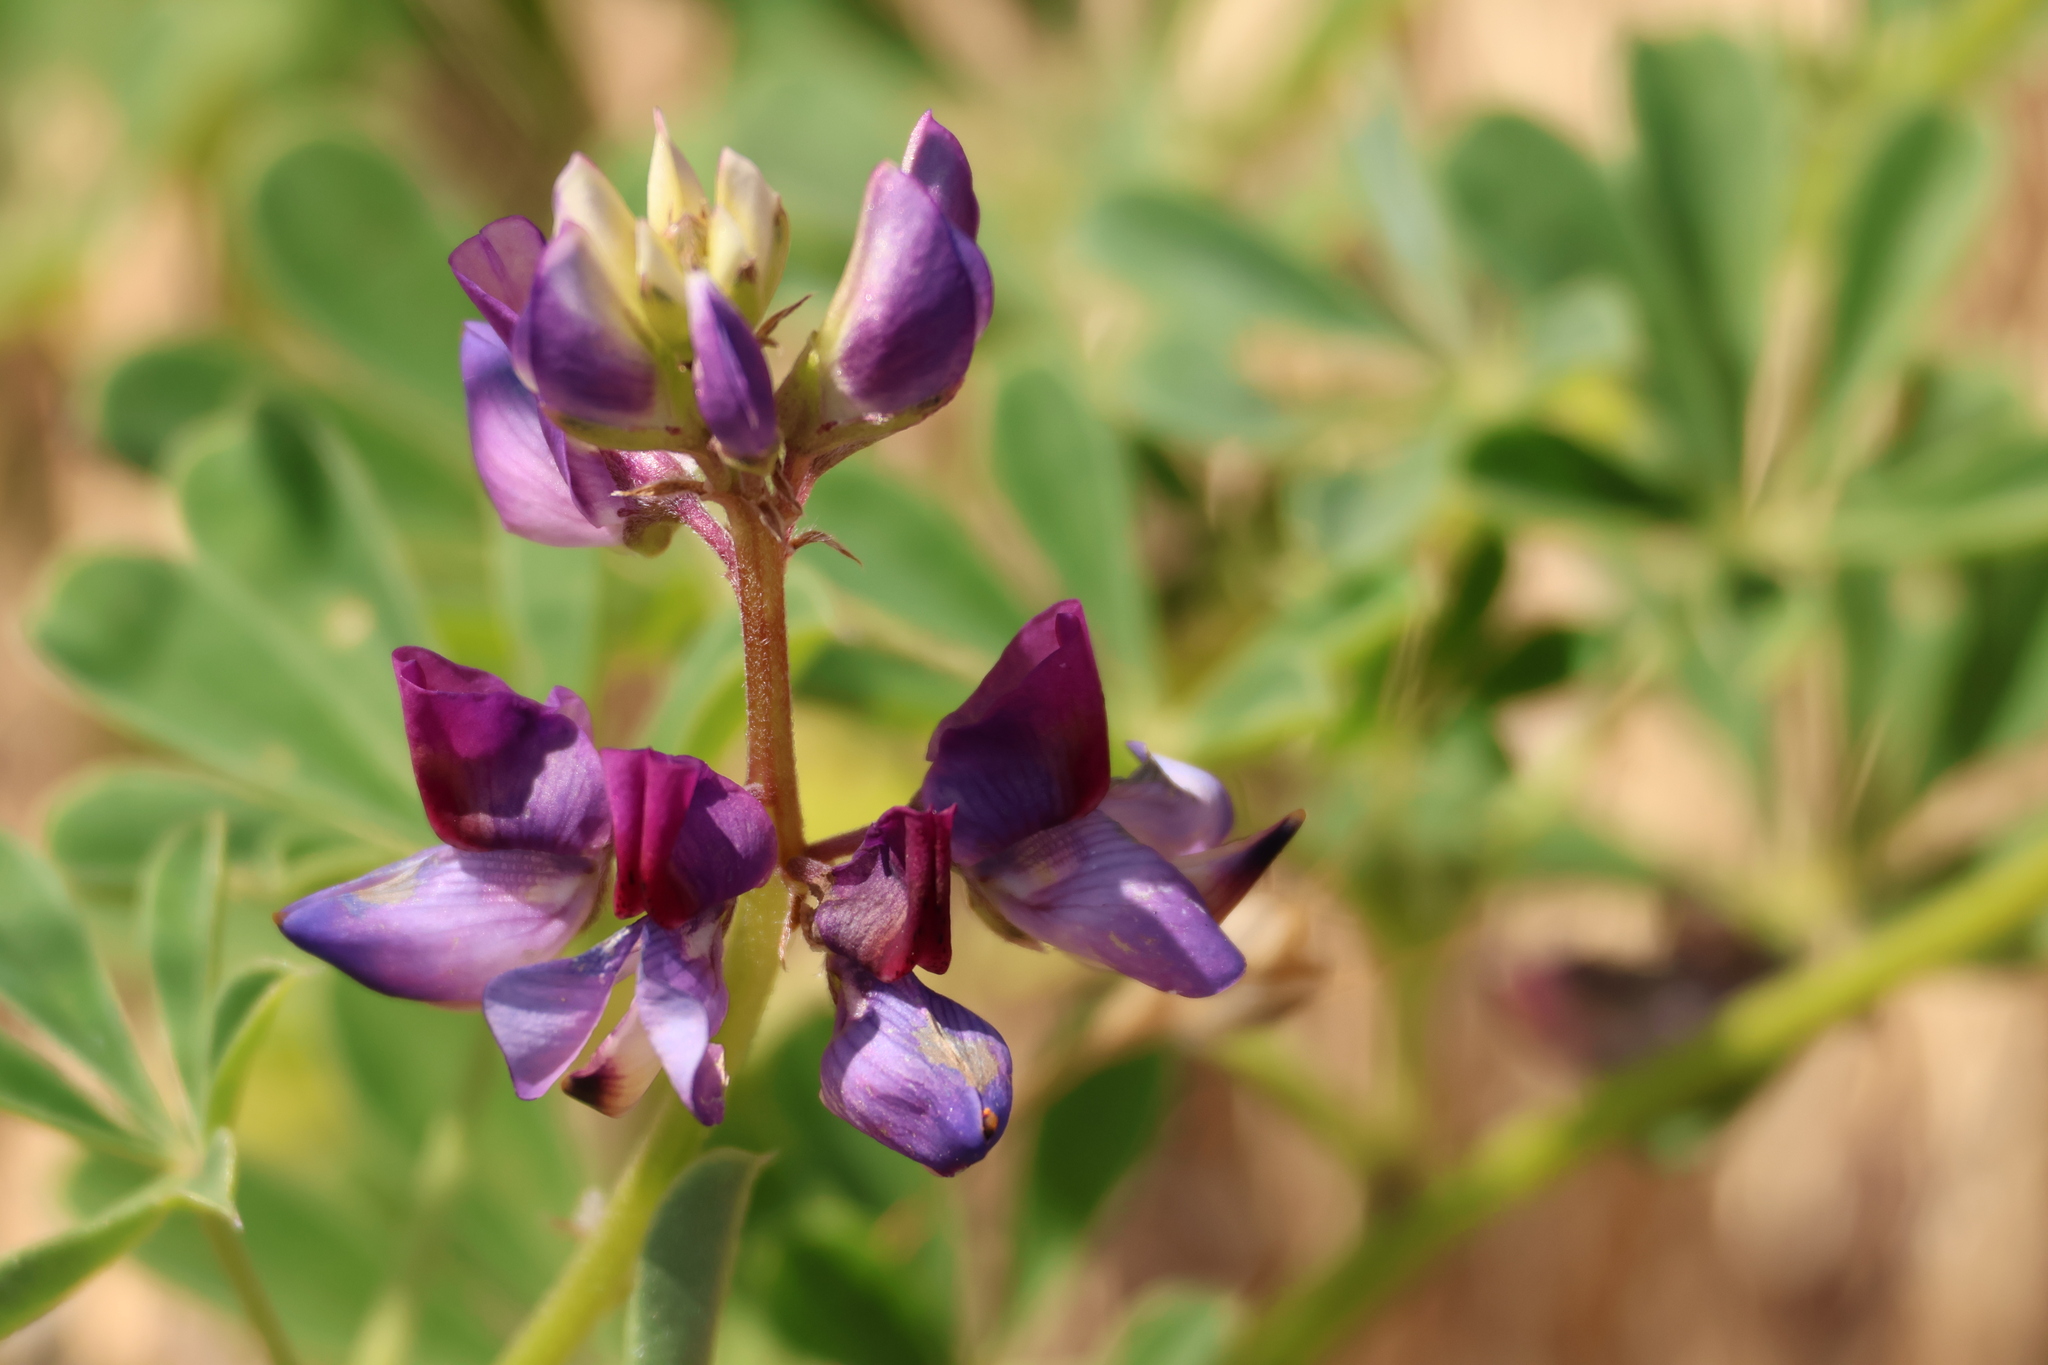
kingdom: Plantae
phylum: Tracheophyta
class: Magnoliopsida
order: Fabales
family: Fabaceae
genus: Lupinus
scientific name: Lupinus succulentus
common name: Arroyo lupine
